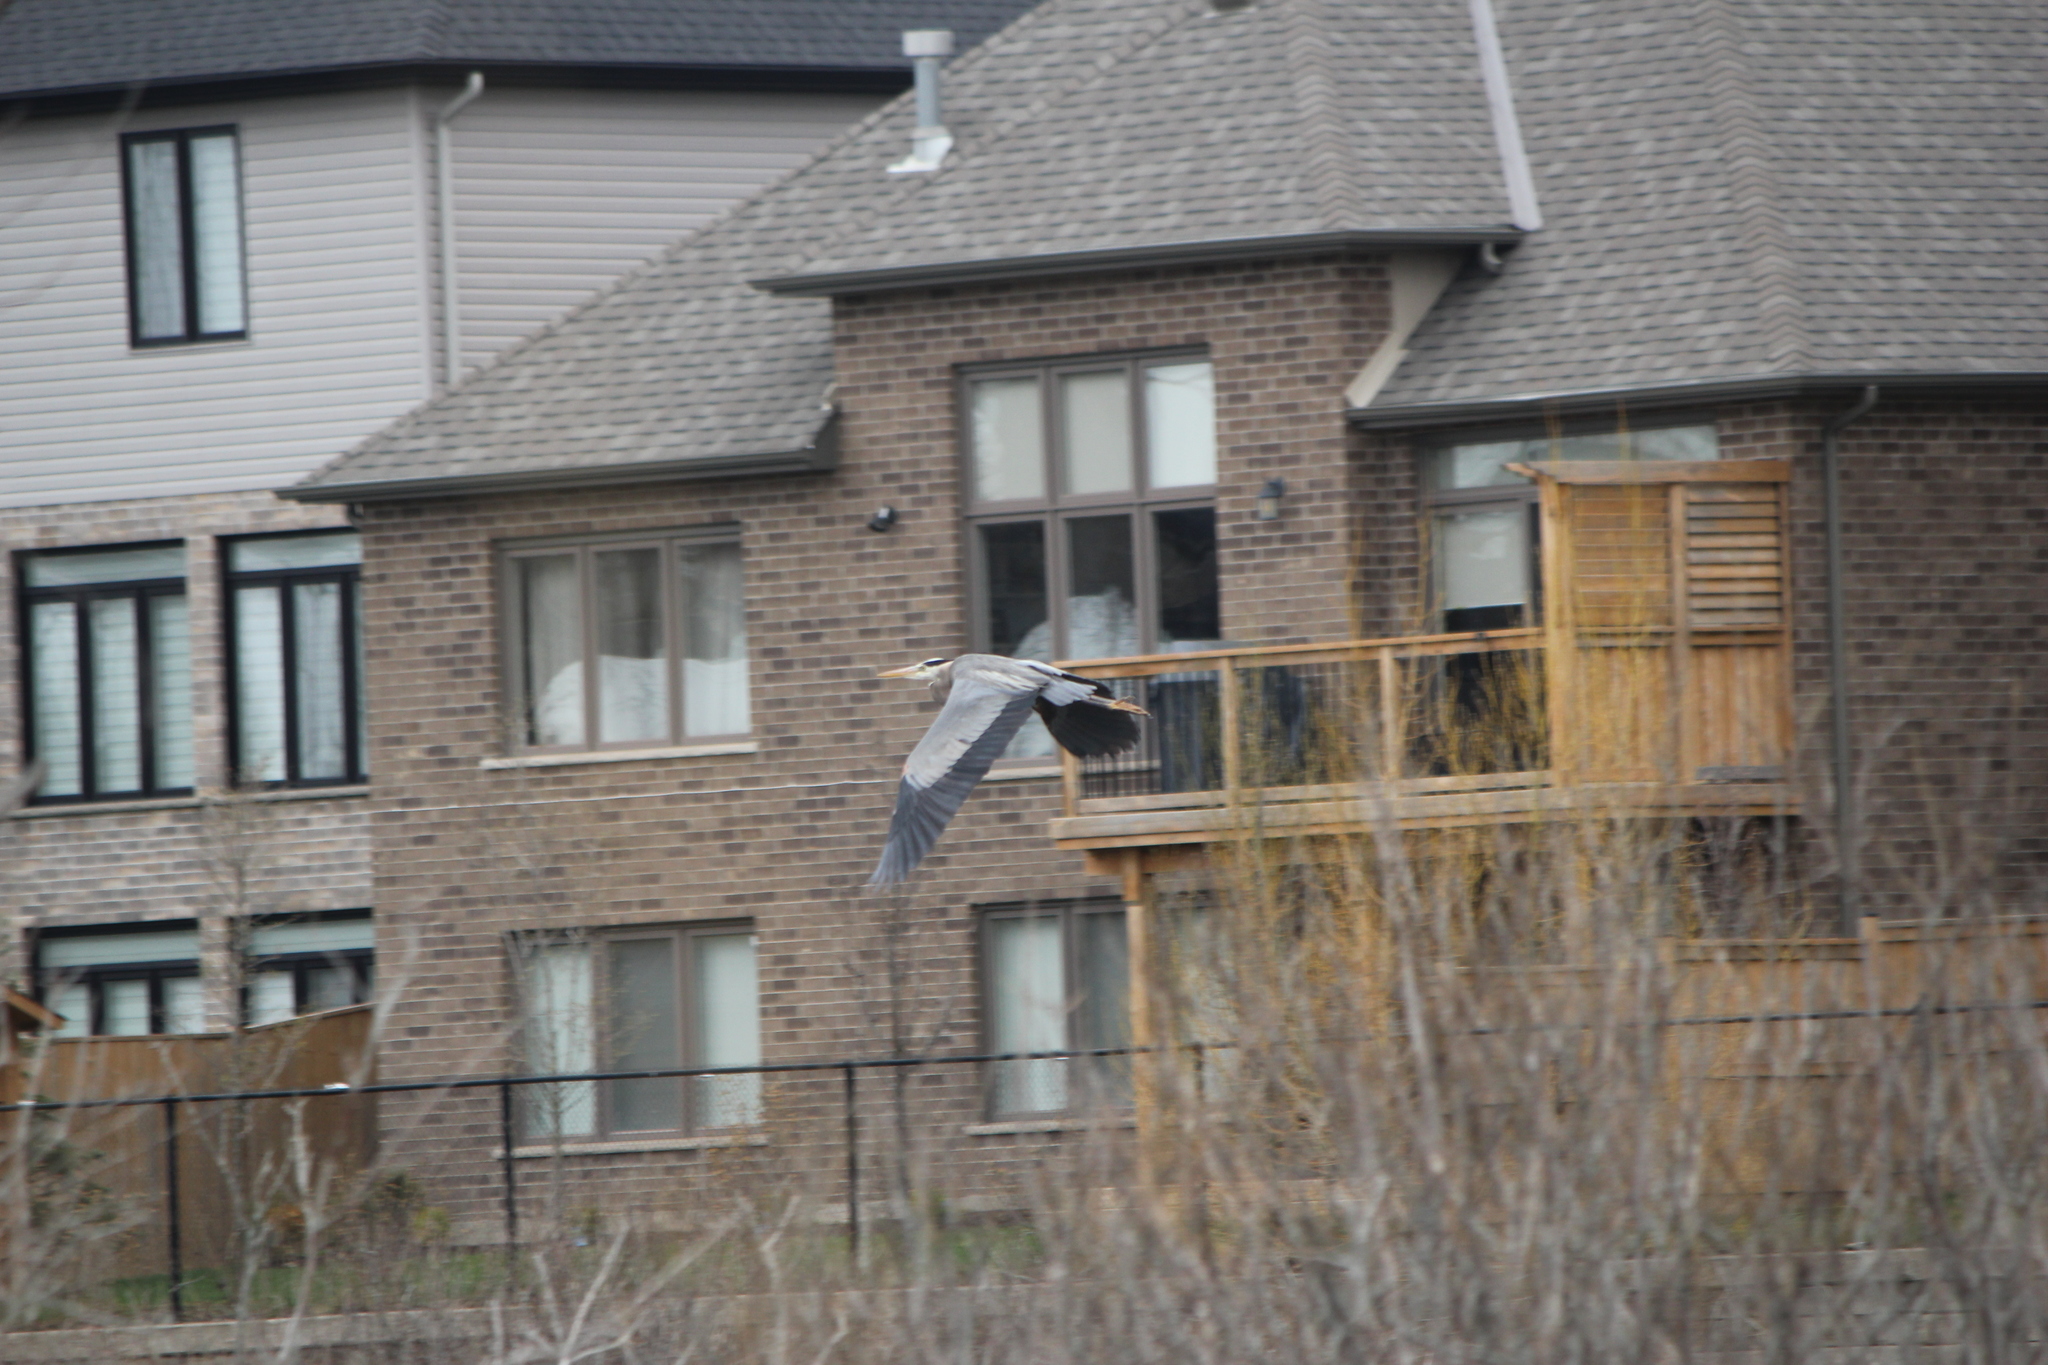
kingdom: Animalia
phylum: Chordata
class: Aves
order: Pelecaniformes
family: Ardeidae
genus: Ardea
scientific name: Ardea herodias
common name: Great blue heron
